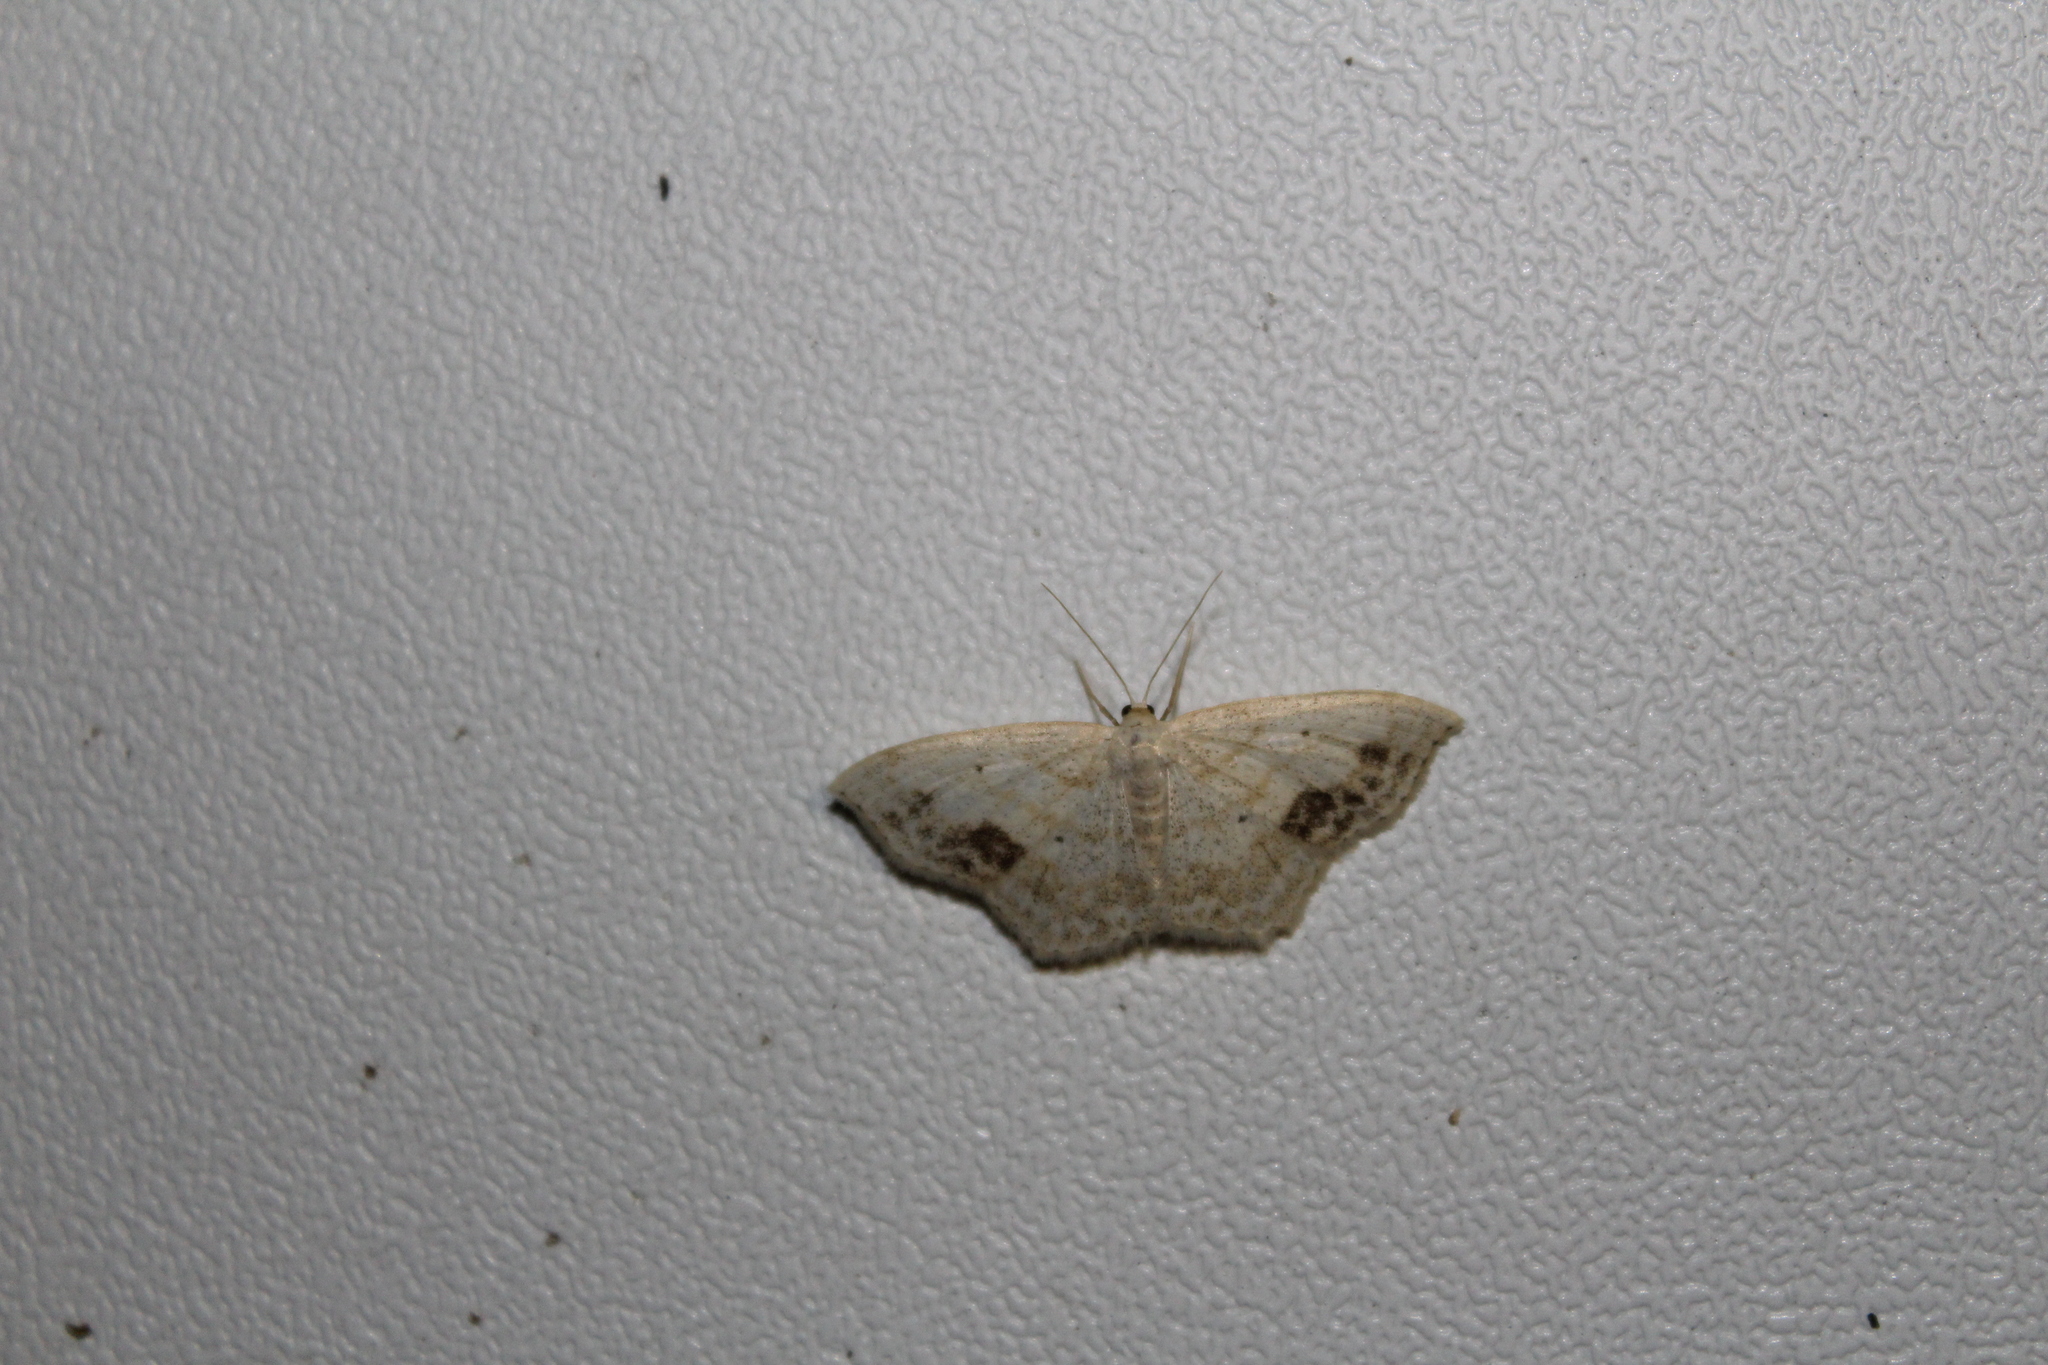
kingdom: Animalia
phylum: Arthropoda
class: Insecta
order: Lepidoptera
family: Geometridae
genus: Scopula
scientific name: Scopula limboundata
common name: Large lace border
